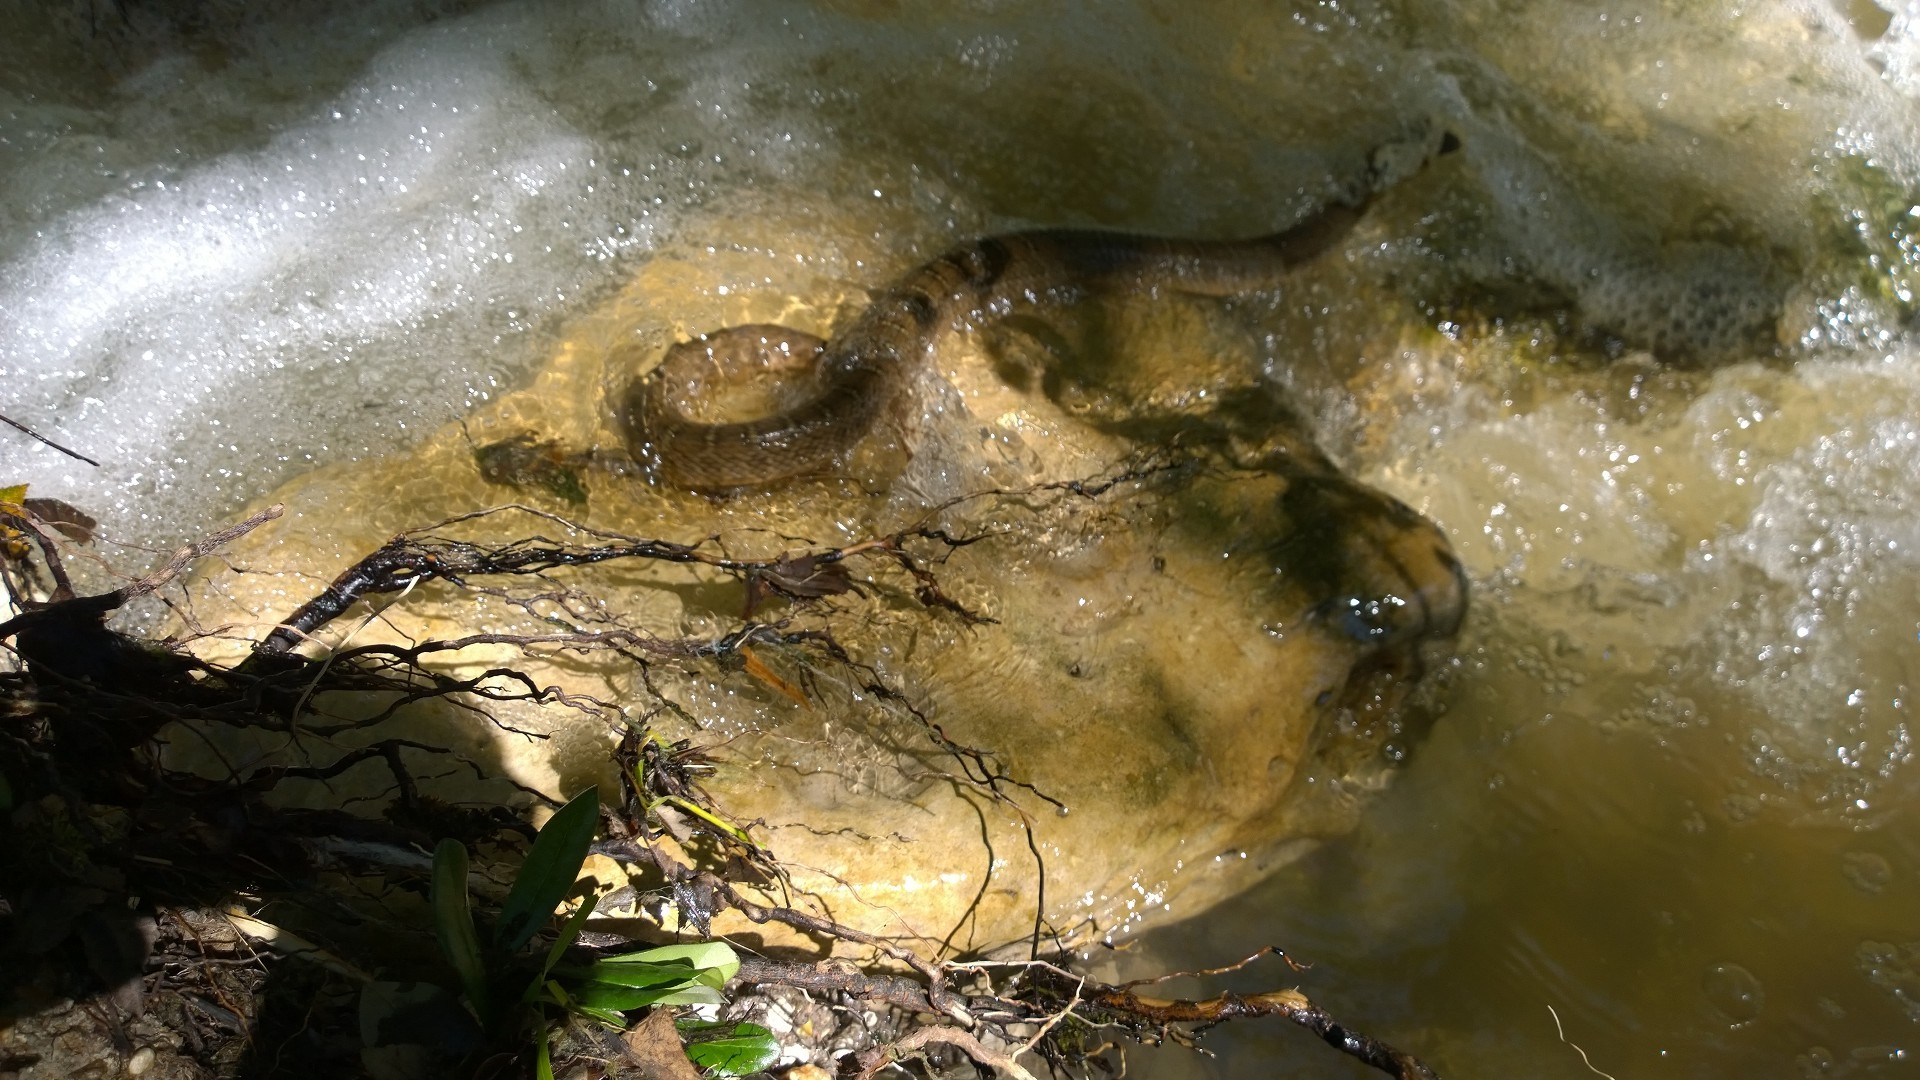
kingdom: Animalia
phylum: Chordata
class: Squamata
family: Colubridae
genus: Nerodia
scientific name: Nerodia erythrogaster
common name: Plainbelly water snake
